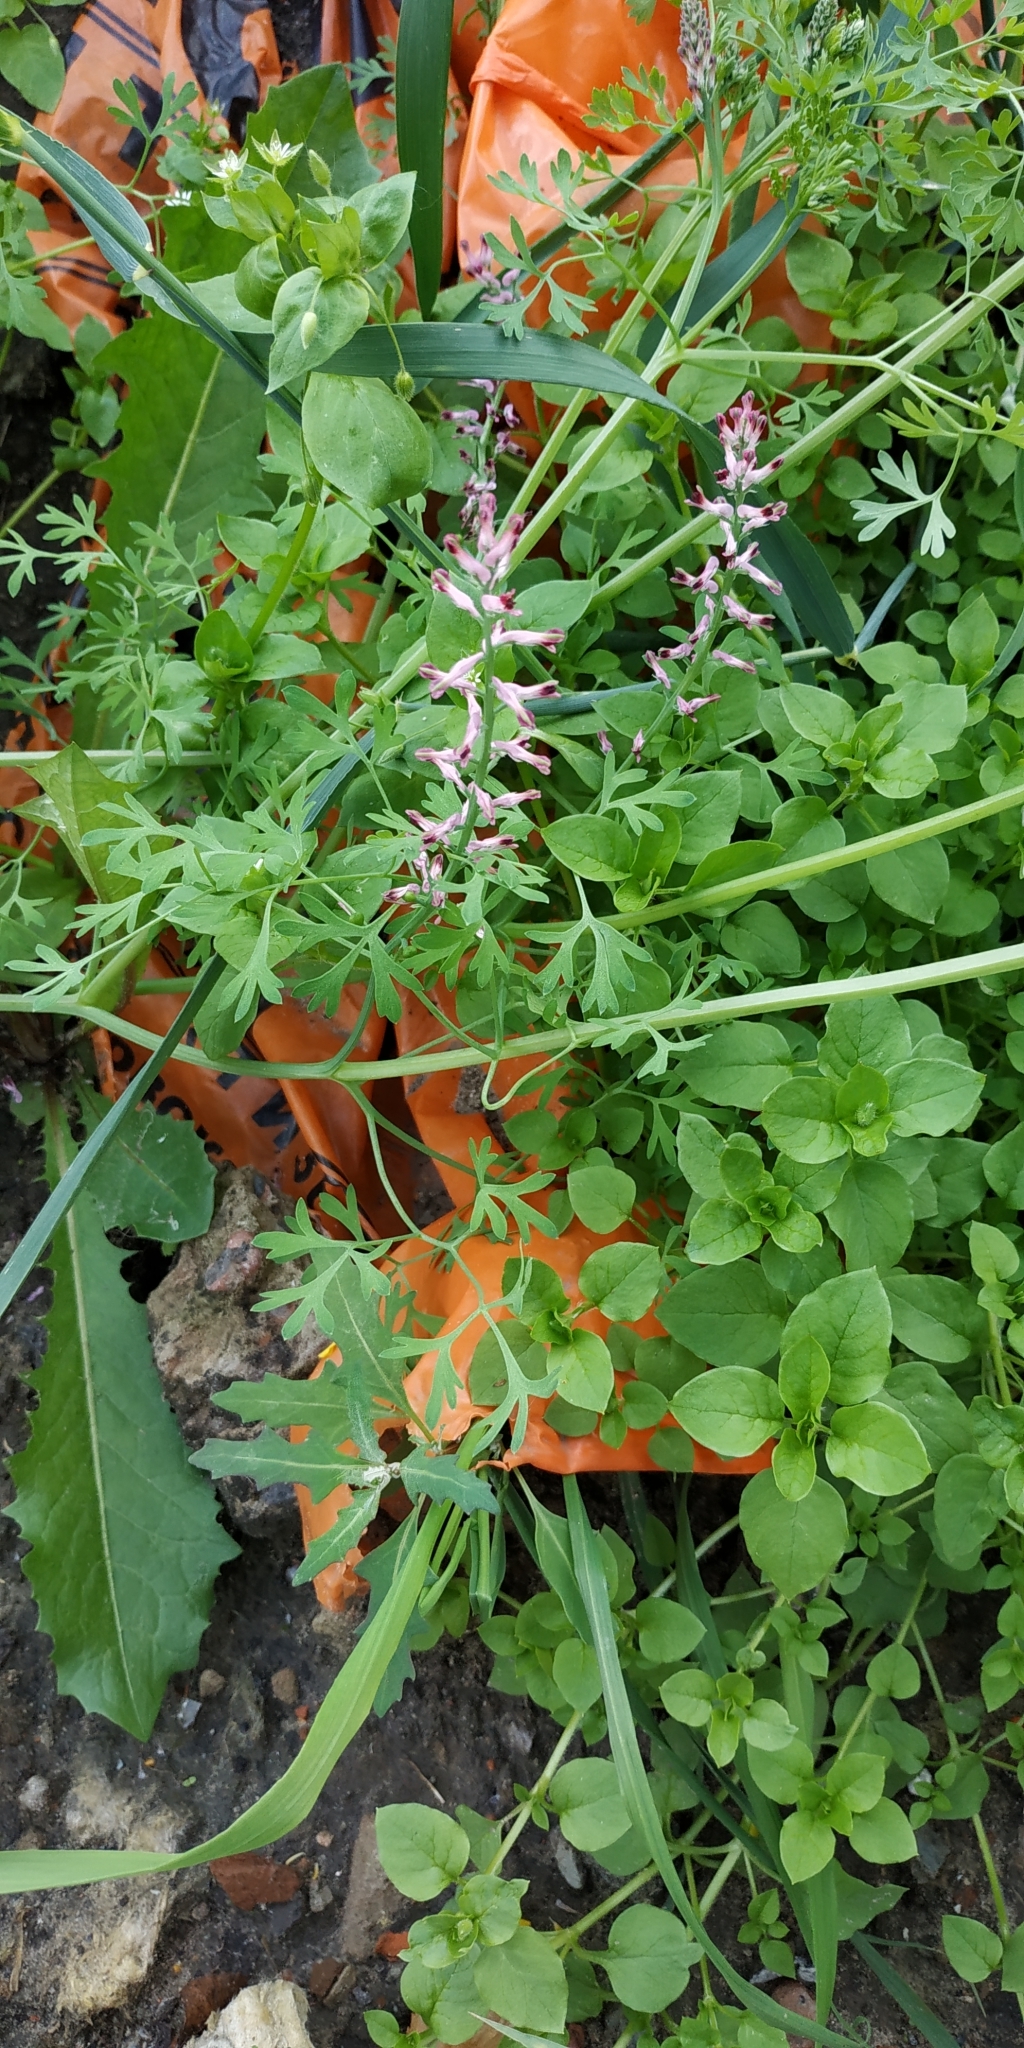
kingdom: Plantae
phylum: Tracheophyta
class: Magnoliopsida
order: Ranunculales
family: Papaveraceae
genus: Fumaria
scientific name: Fumaria officinalis
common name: Common fumitory
